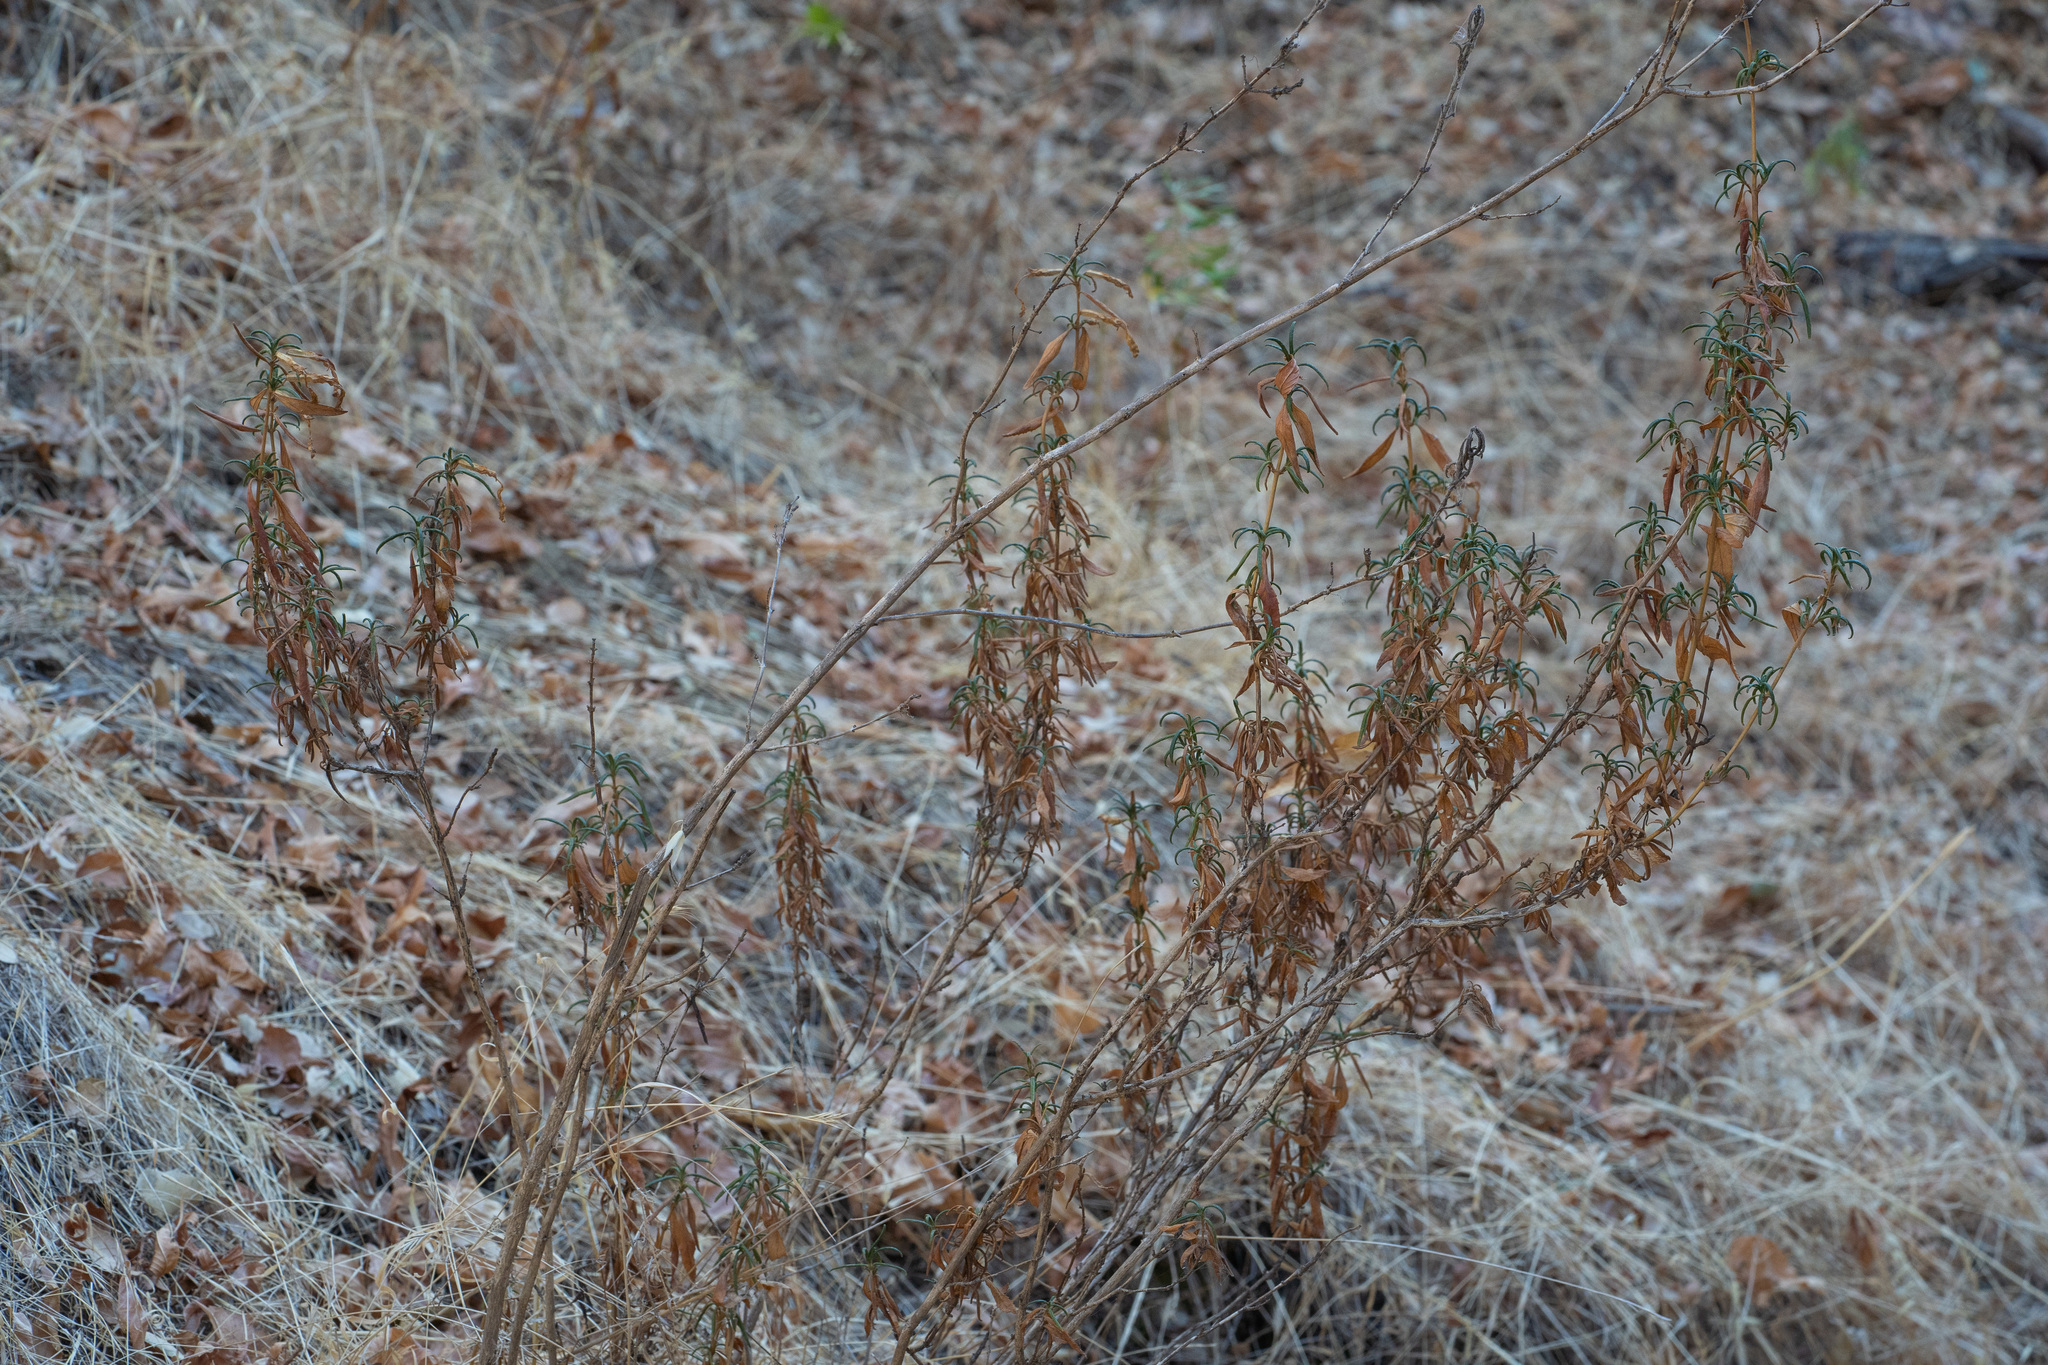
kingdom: Plantae
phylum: Tracheophyta
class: Magnoliopsida
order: Lamiales
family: Phrymaceae
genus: Diplacus
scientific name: Diplacus aurantiacus
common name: Bush monkey-flower
